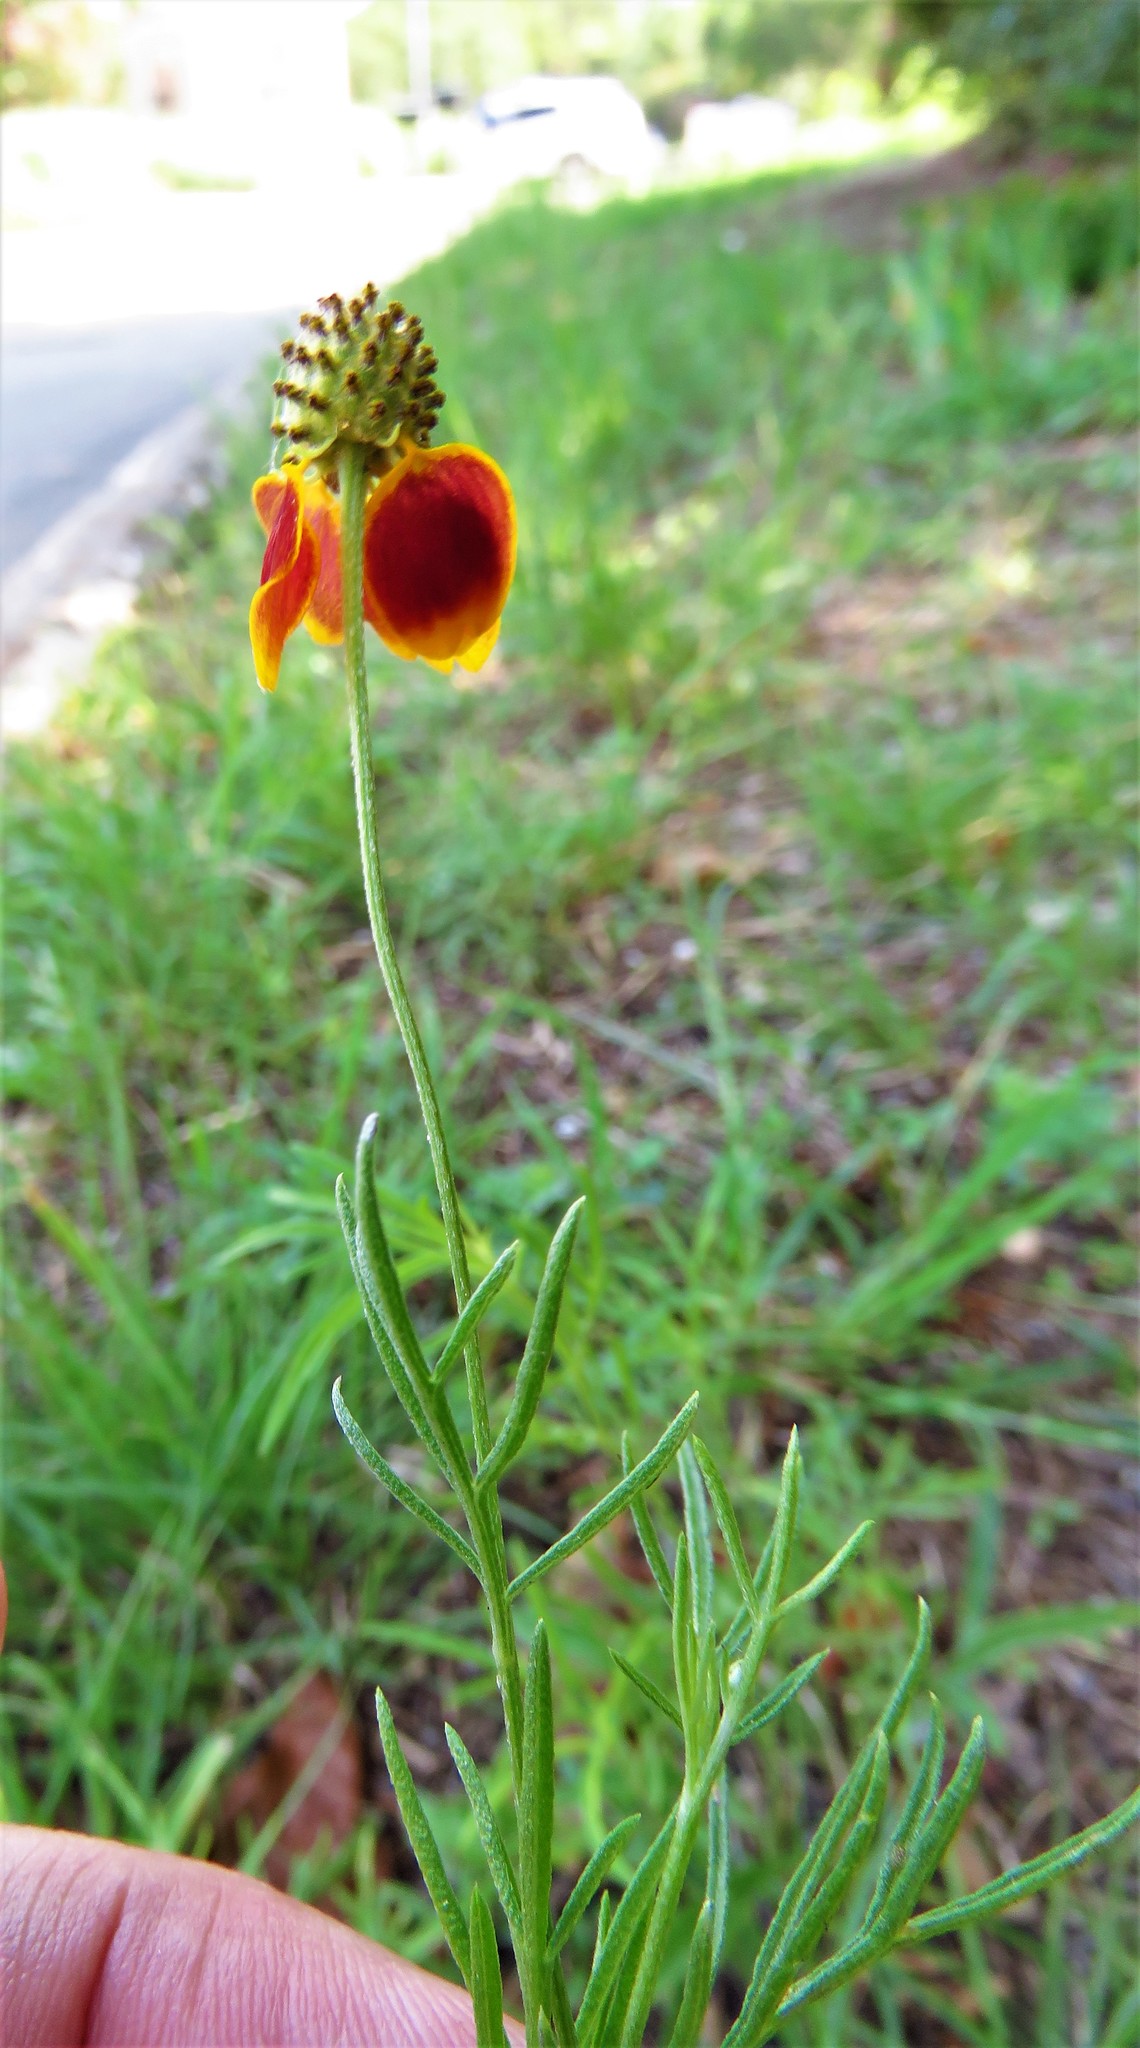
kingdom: Plantae
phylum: Tracheophyta
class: Magnoliopsida
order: Asterales
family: Asteraceae
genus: Ratibida
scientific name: Ratibida columnifera
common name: Prairie coneflower
